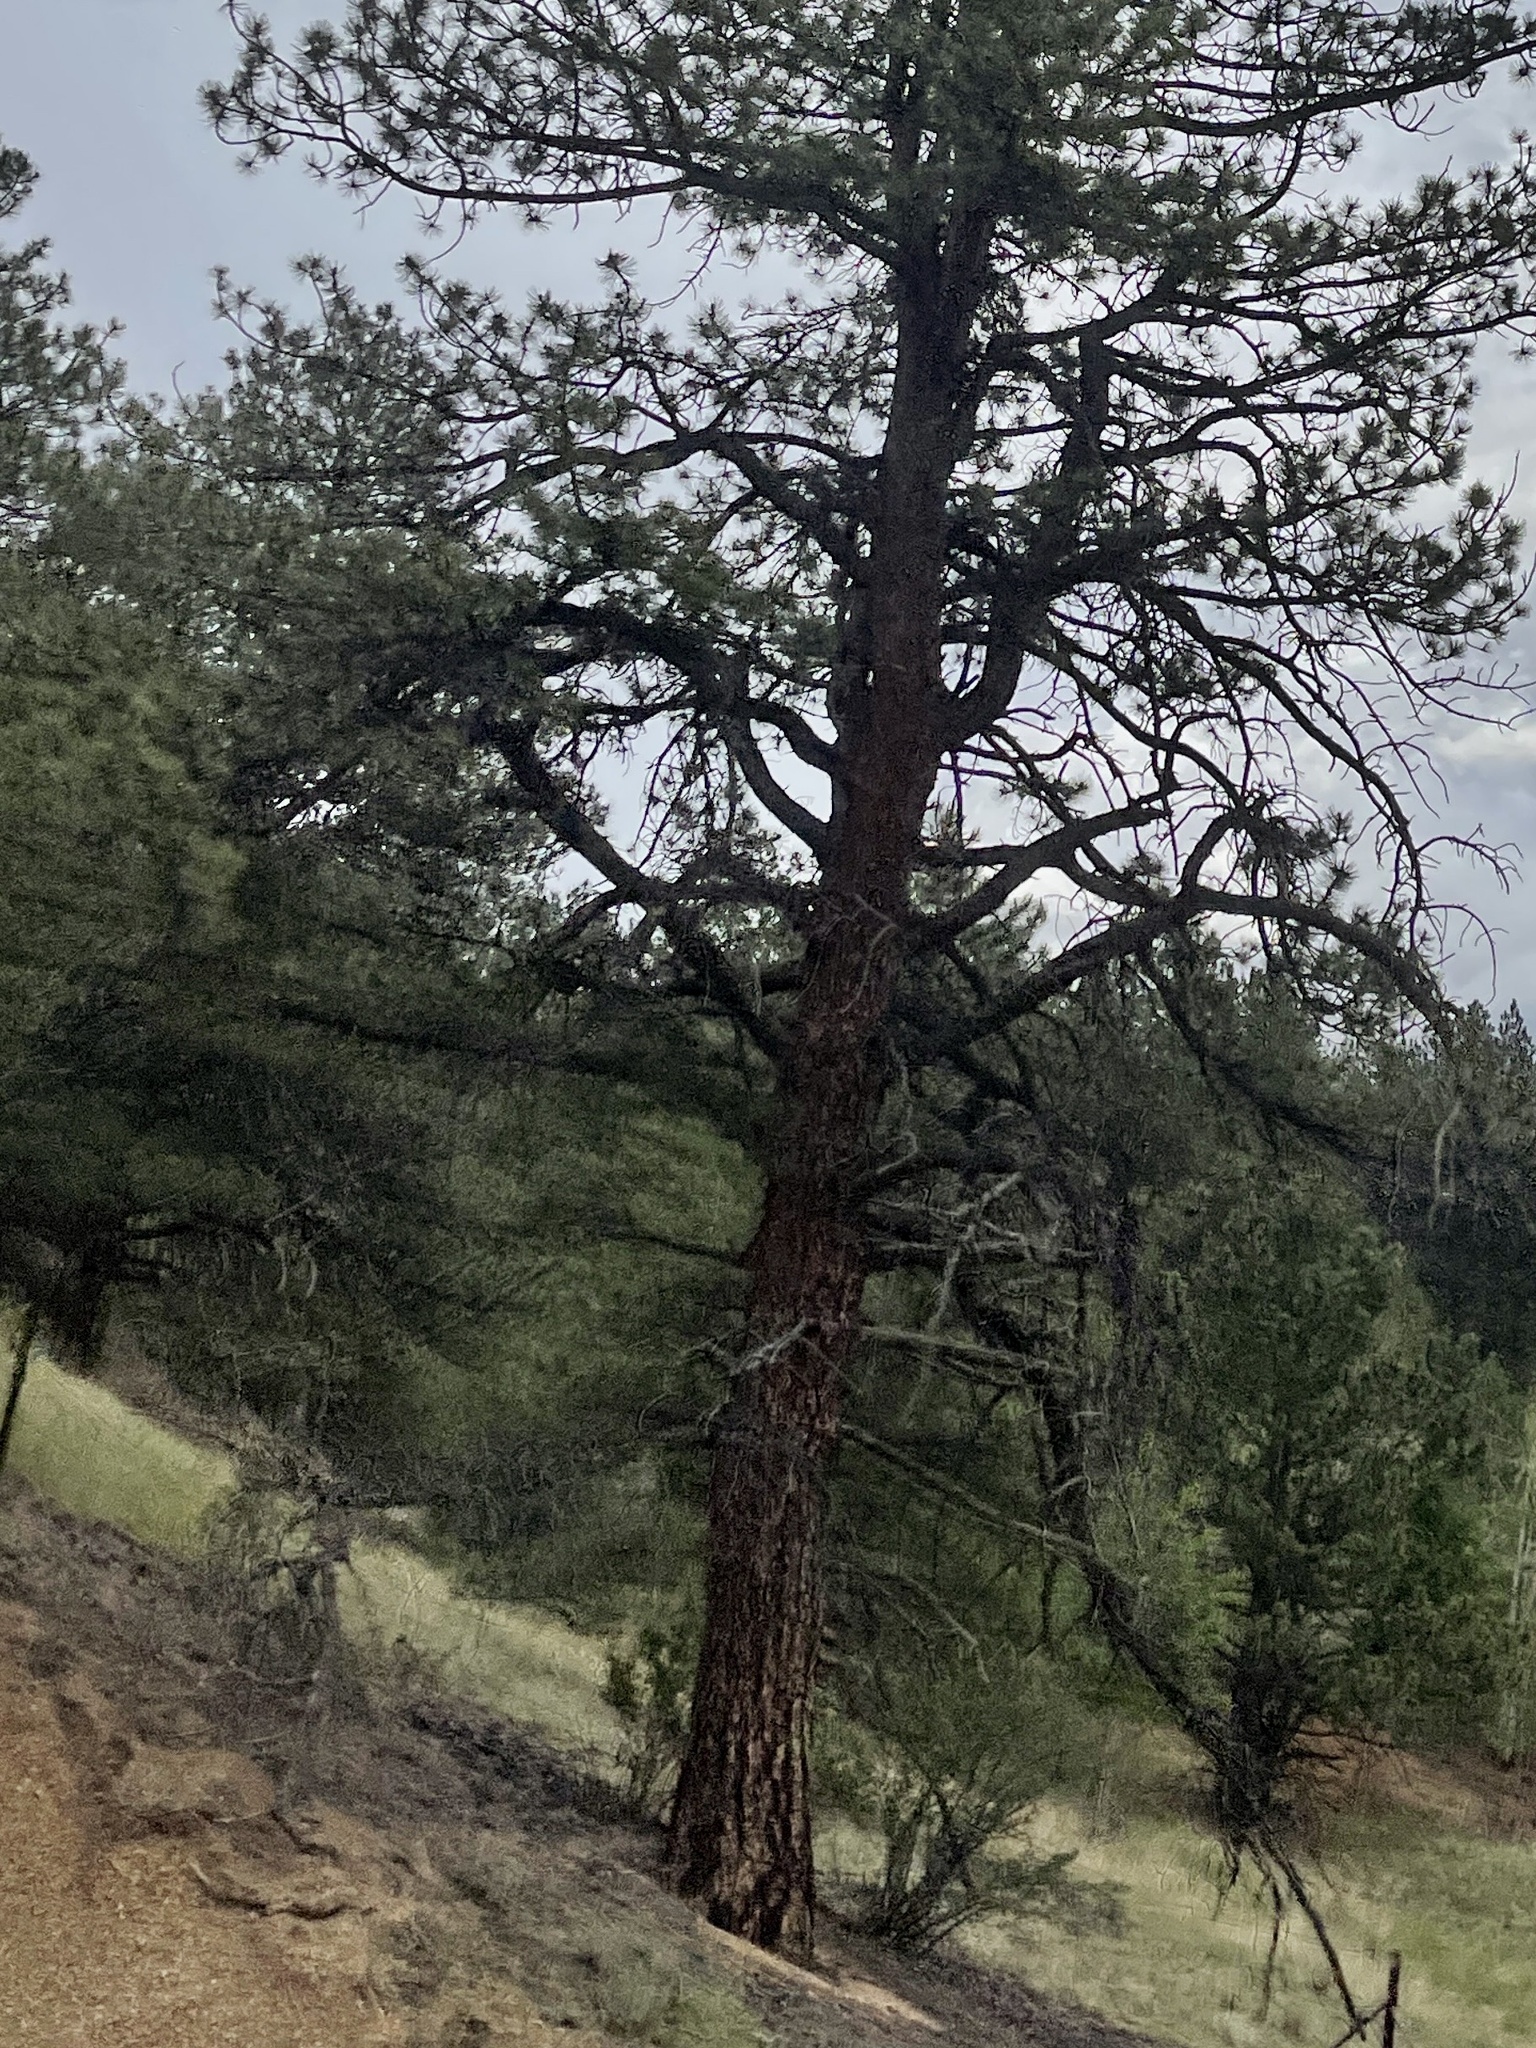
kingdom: Plantae
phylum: Tracheophyta
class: Pinopsida
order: Pinales
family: Pinaceae
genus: Pinus
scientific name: Pinus ponderosa
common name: Western yellow-pine
